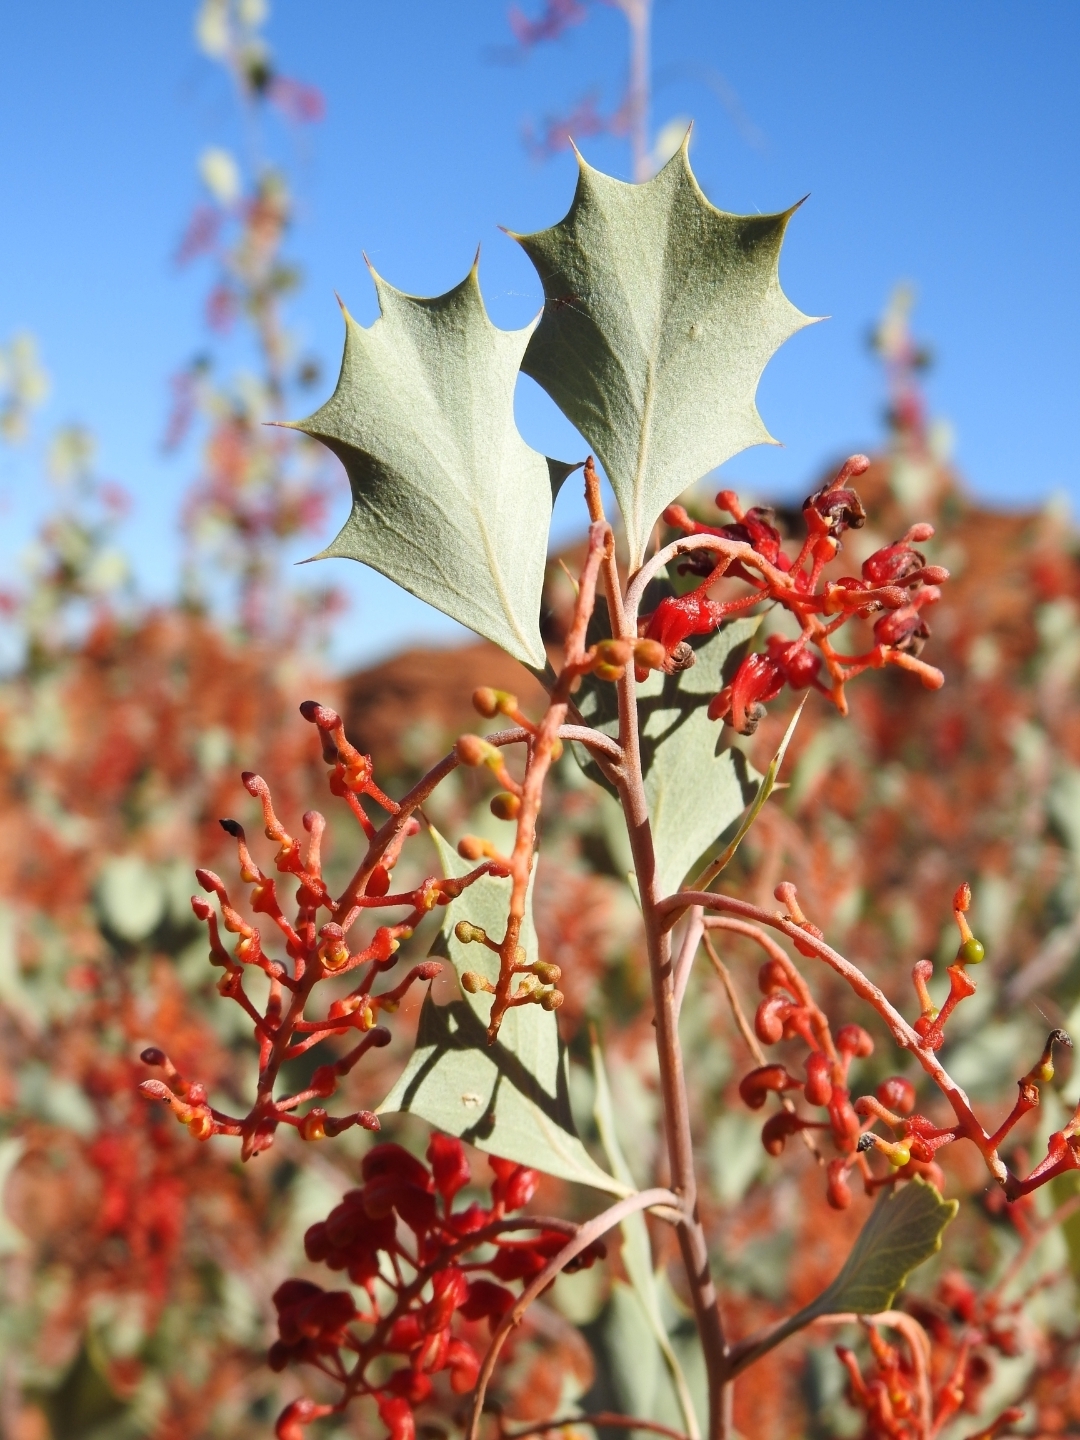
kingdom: Plantae
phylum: Tracheophyta
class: Magnoliopsida
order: Proteales
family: Proteaceae
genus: Grevillea
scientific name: Grevillea wickhamii
